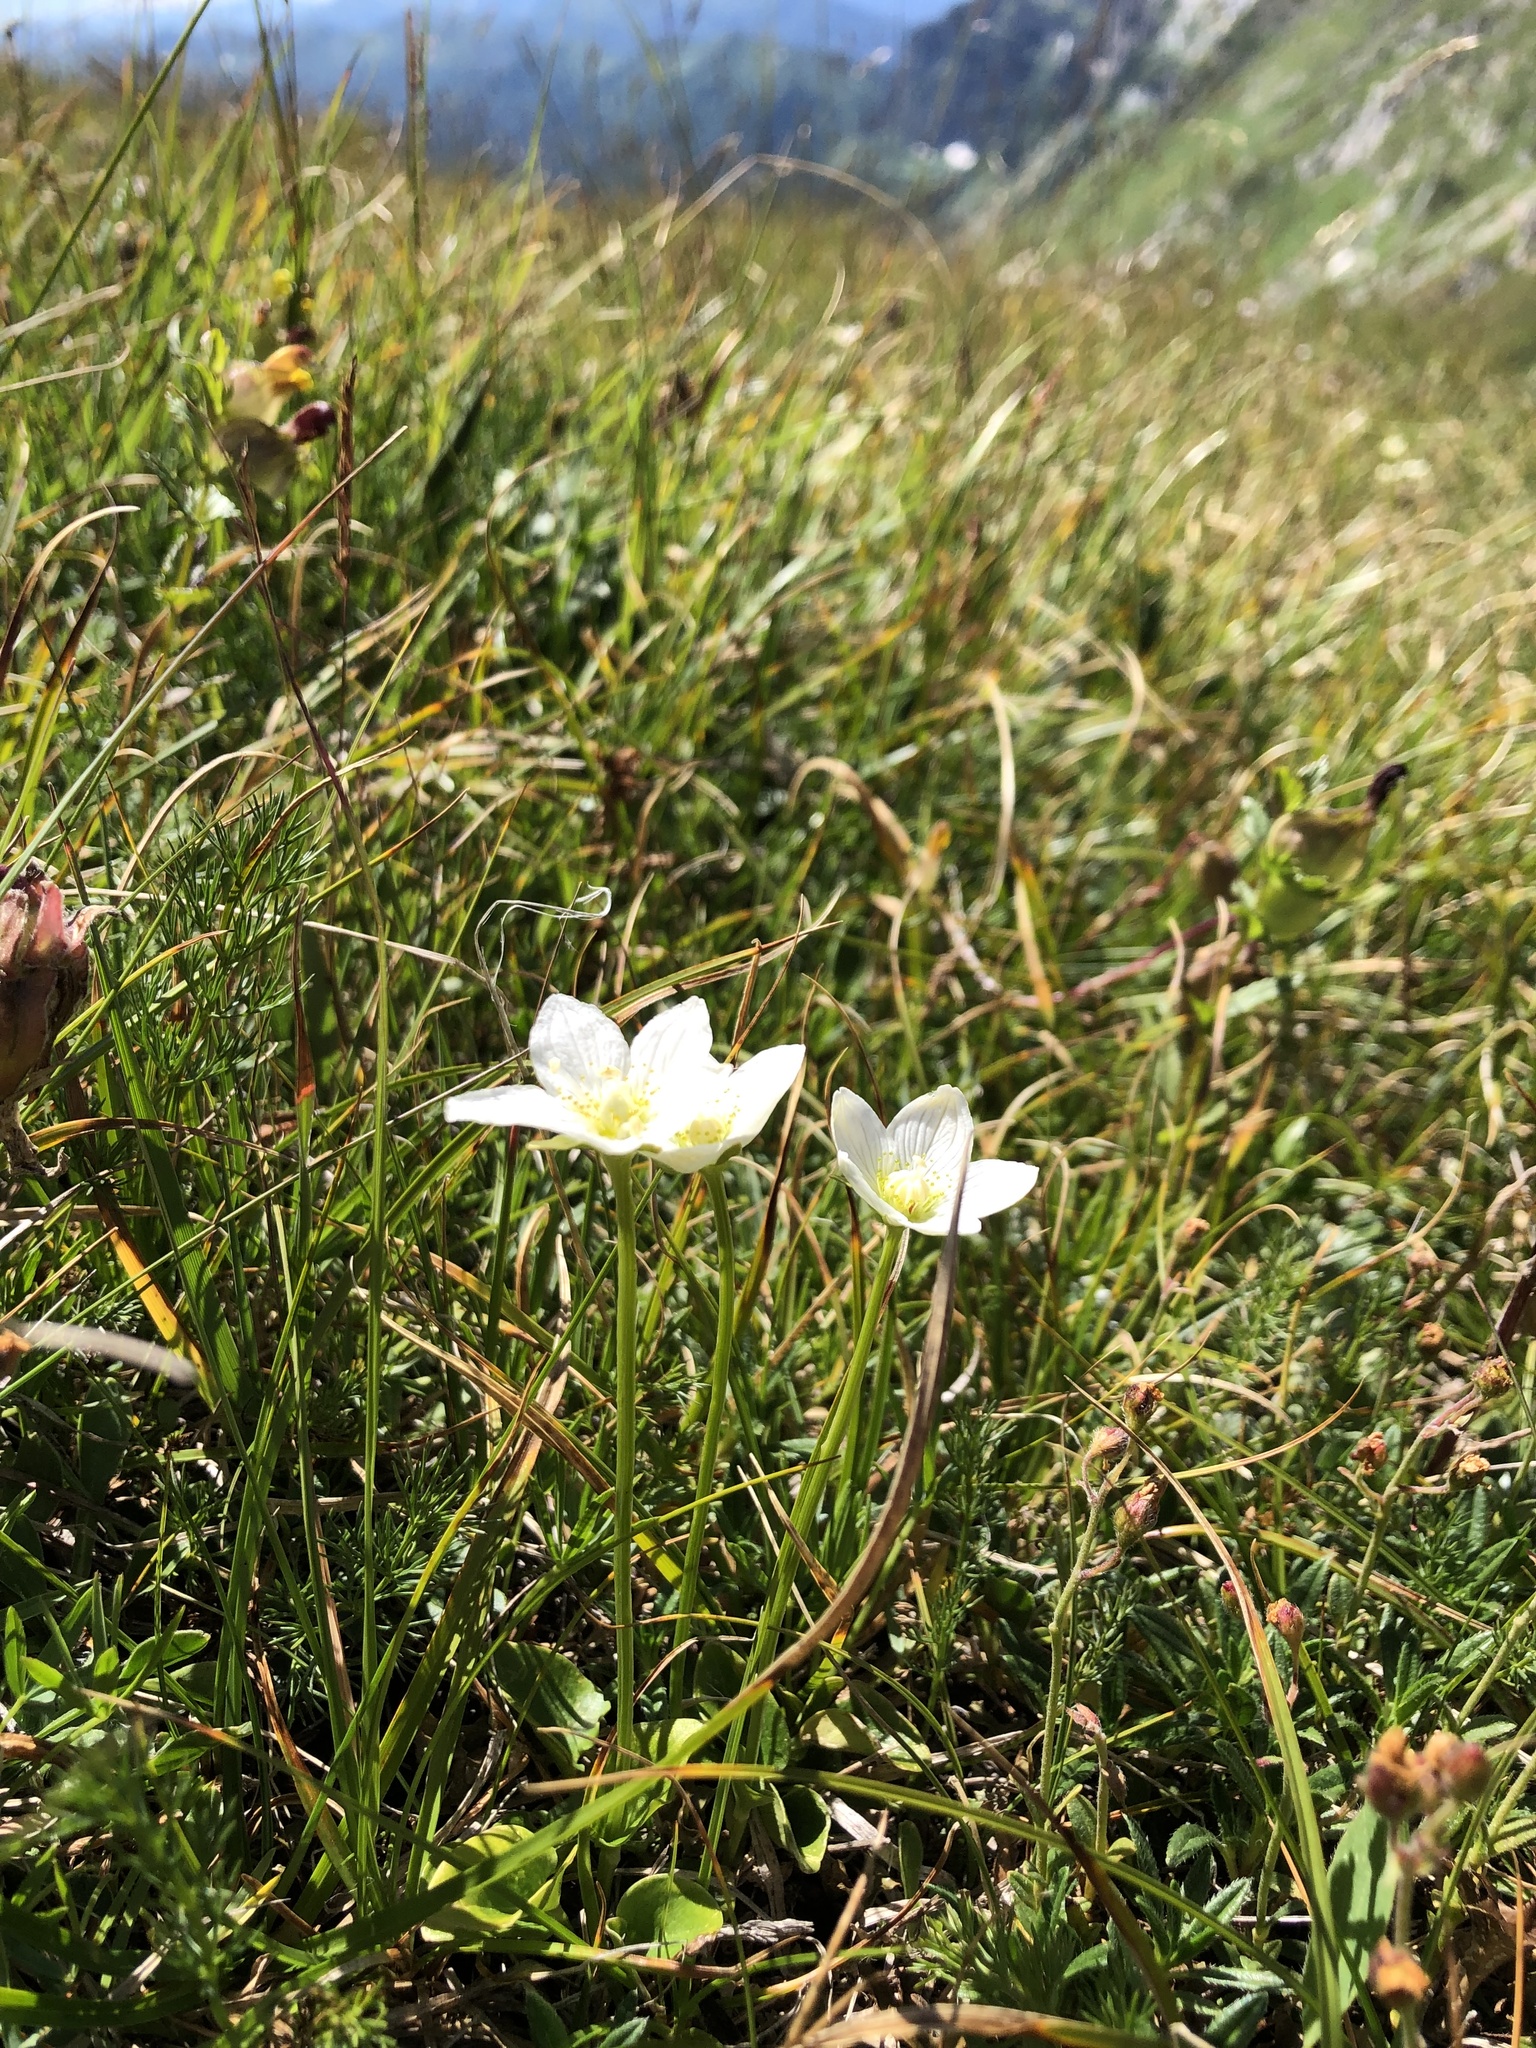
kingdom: Plantae
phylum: Tracheophyta
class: Magnoliopsida
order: Celastrales
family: Parnassiaceae
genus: Parnassia
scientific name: Parnassia palustris
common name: Grass-of-parnassus
